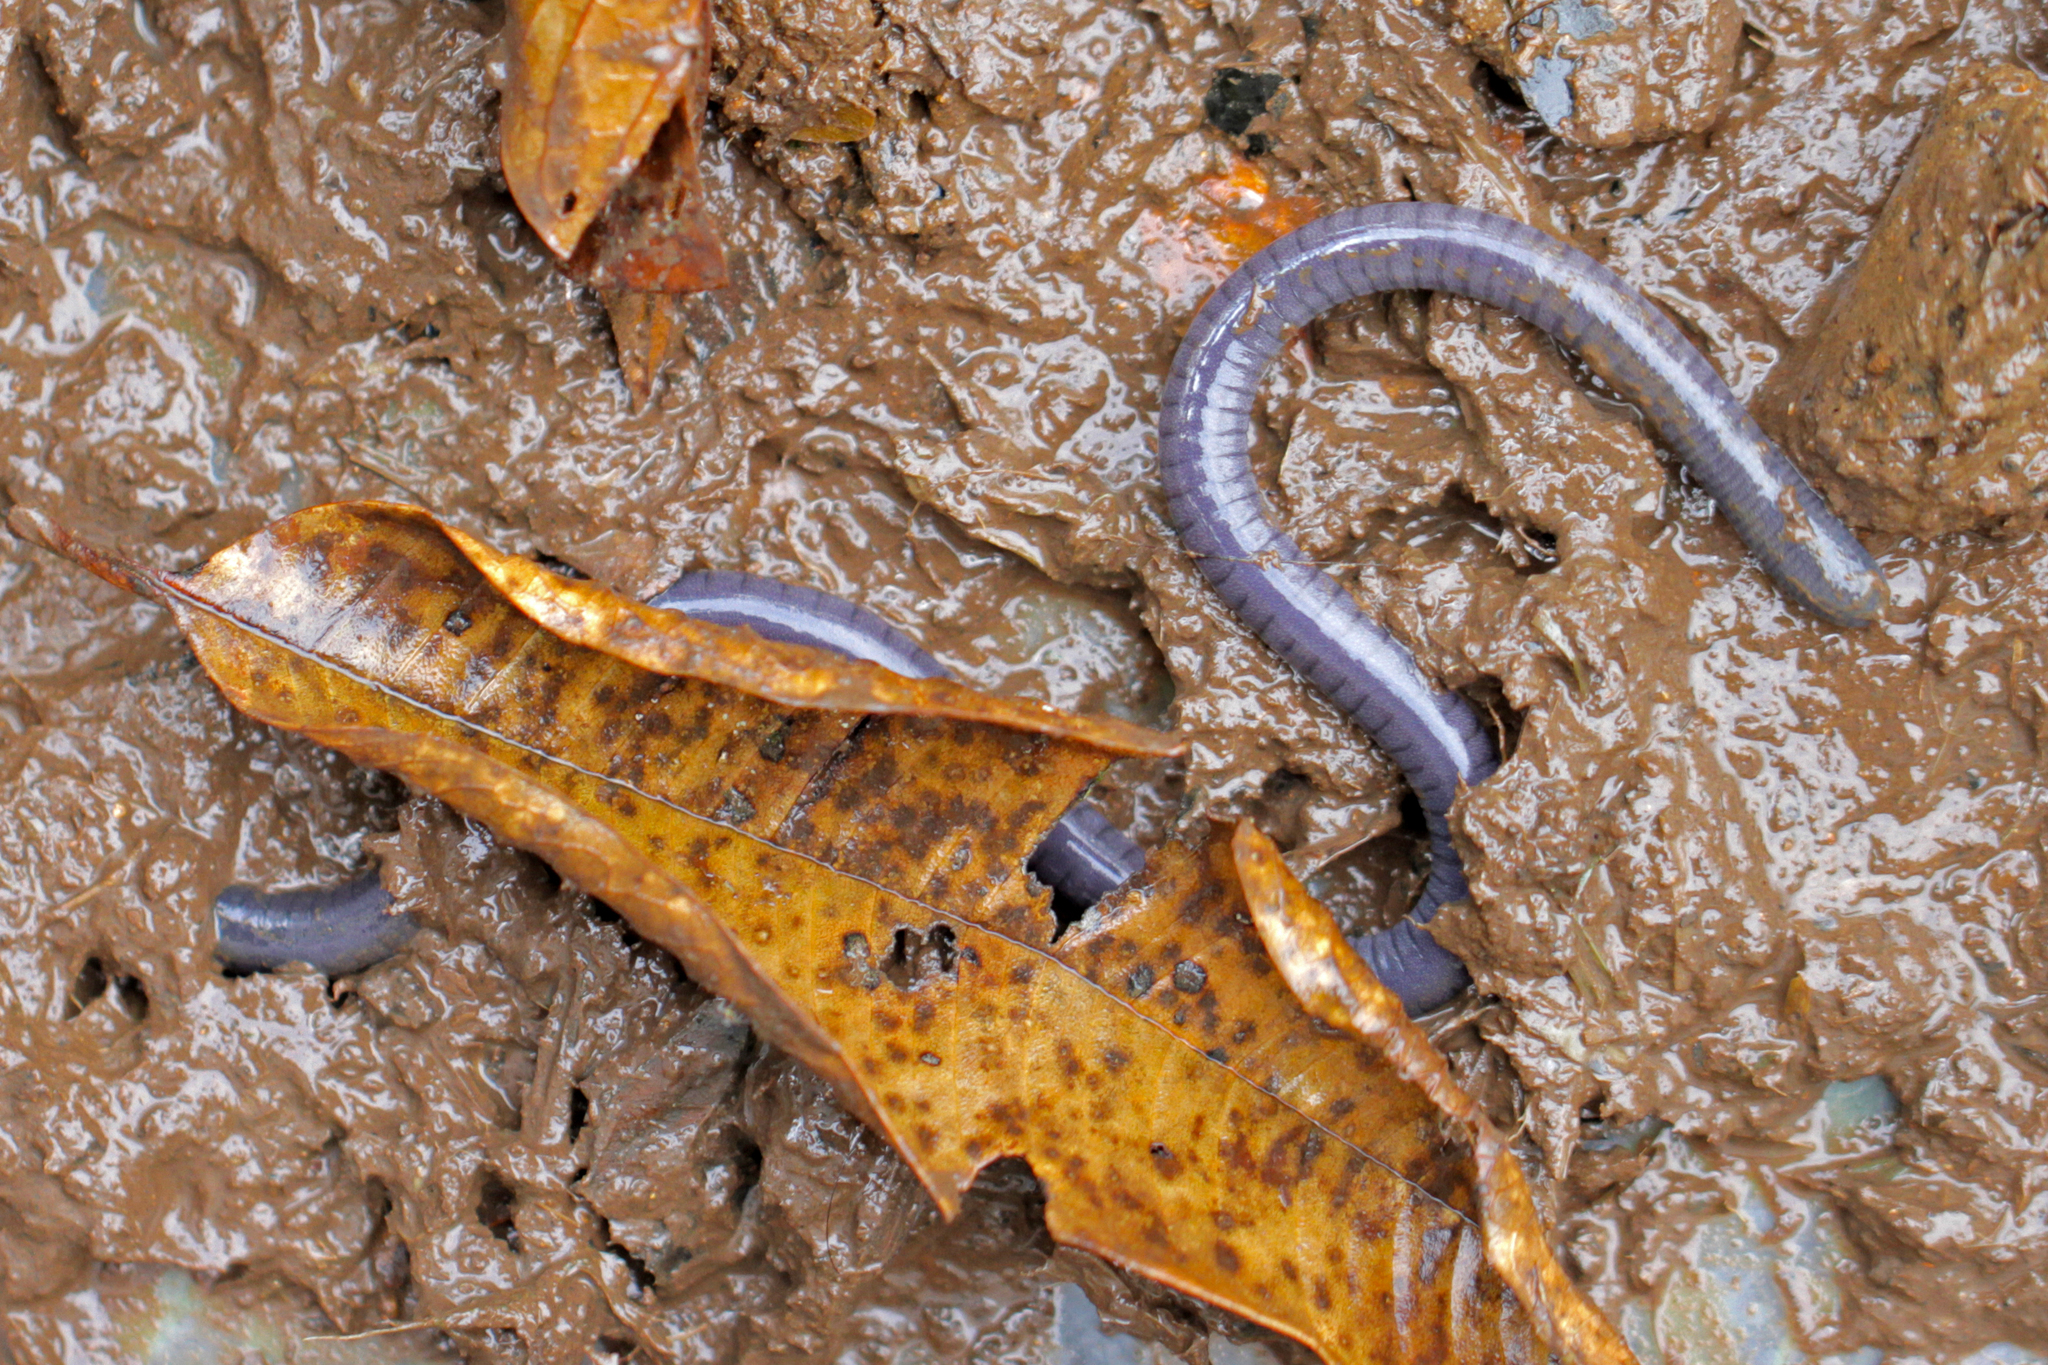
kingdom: Animalia
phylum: Chordata
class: Amphibia
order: Gymnophiona
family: Dermophiidae
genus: Dermophis
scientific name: Dermophis parviceps
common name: La loma caecilian
